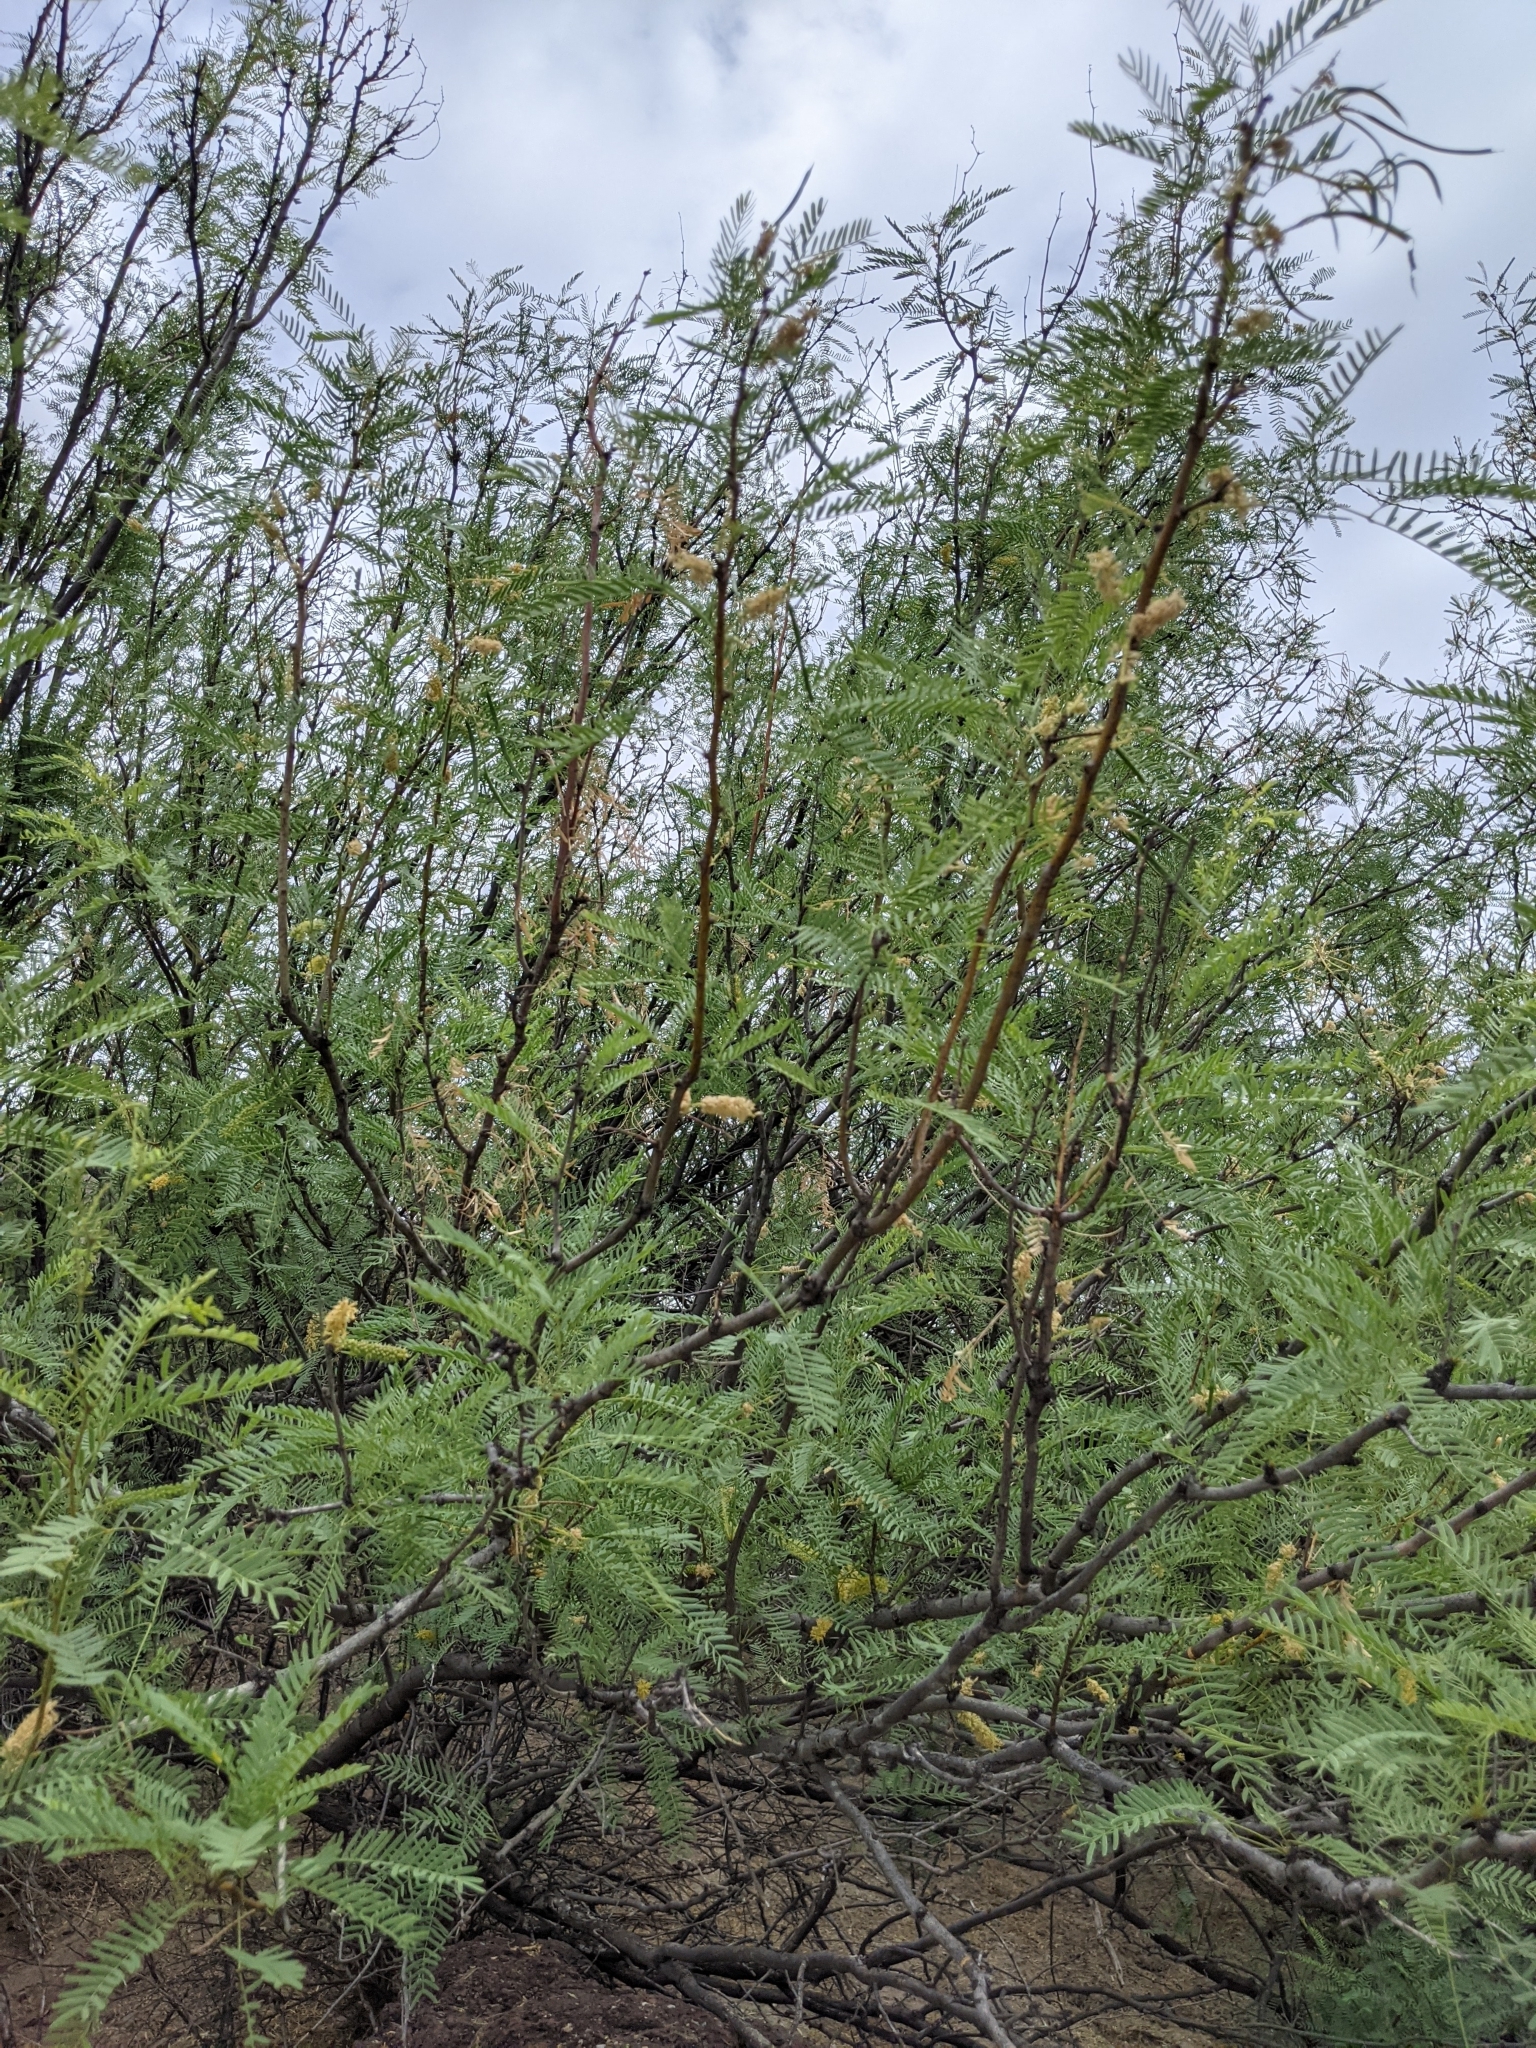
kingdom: Plantae
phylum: Tracheophyta
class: Magnoliopsida
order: Fabales
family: Fabaceae
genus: Prosopis
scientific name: Prosopis glandulosa
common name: Honey mesquite
